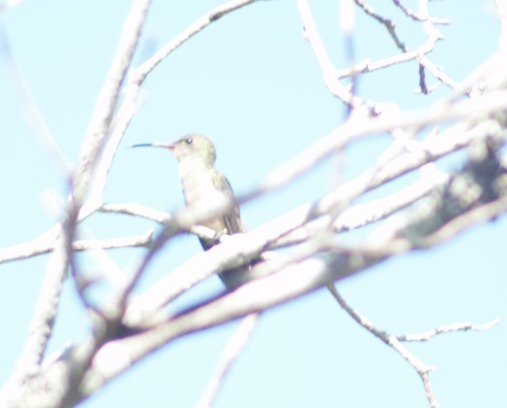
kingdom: Animalia
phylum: Chordata
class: Aves
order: Apodiformes
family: Trochilidae
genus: Hylocharis
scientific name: Hylocharis chrysura
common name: Gilded sapphire
